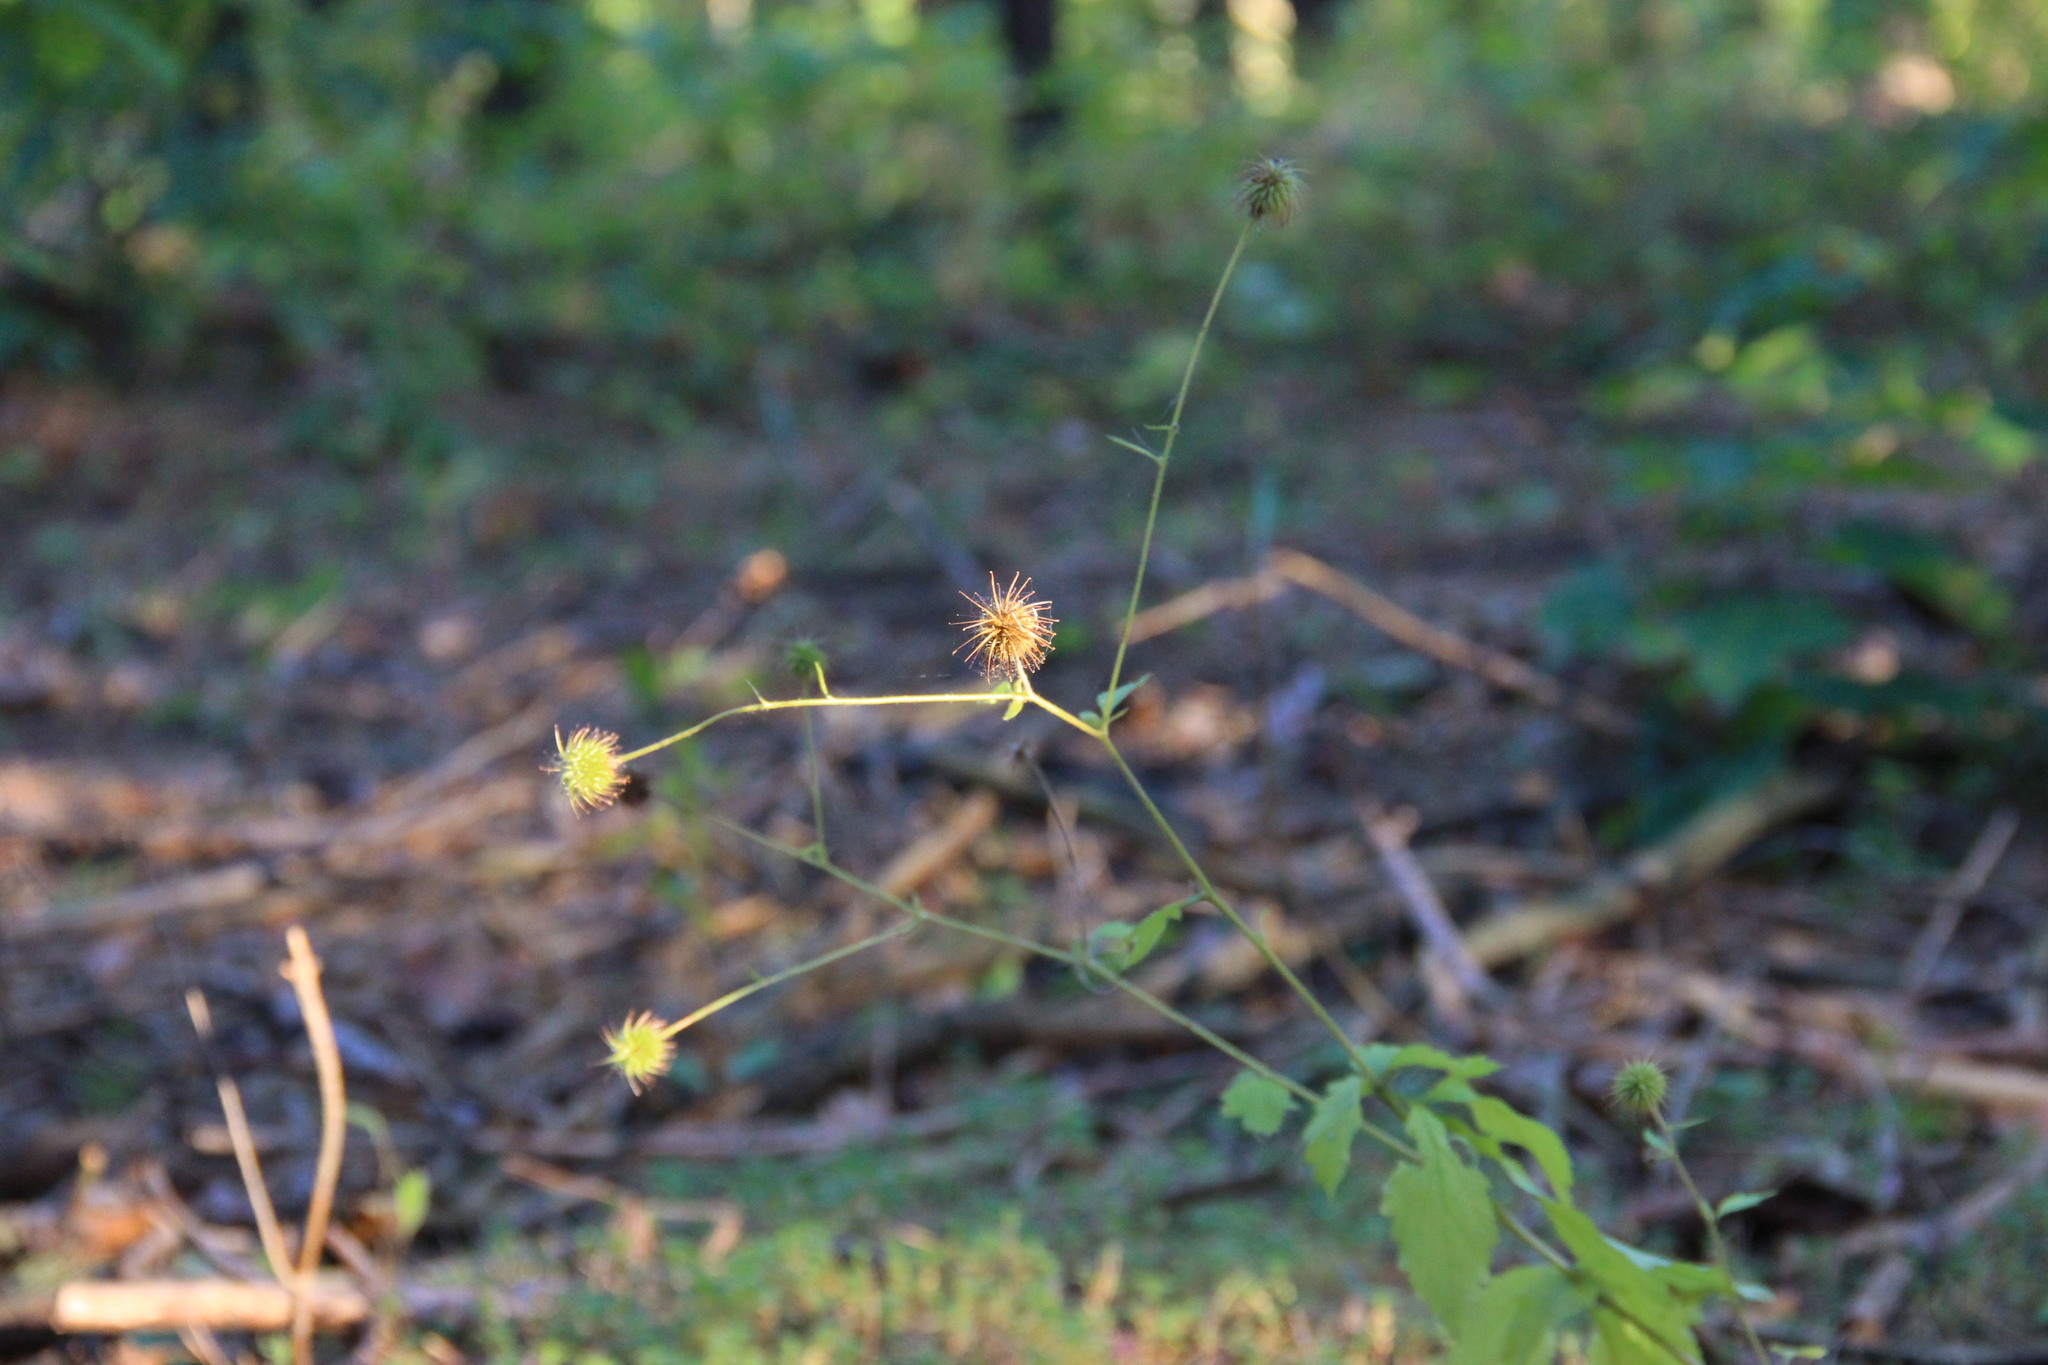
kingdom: Plantae
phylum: Tracheophyta
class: Magnoliopsida
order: Rosales
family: Rosaceae
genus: Geum
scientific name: Geum urbanum
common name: Wood avens
